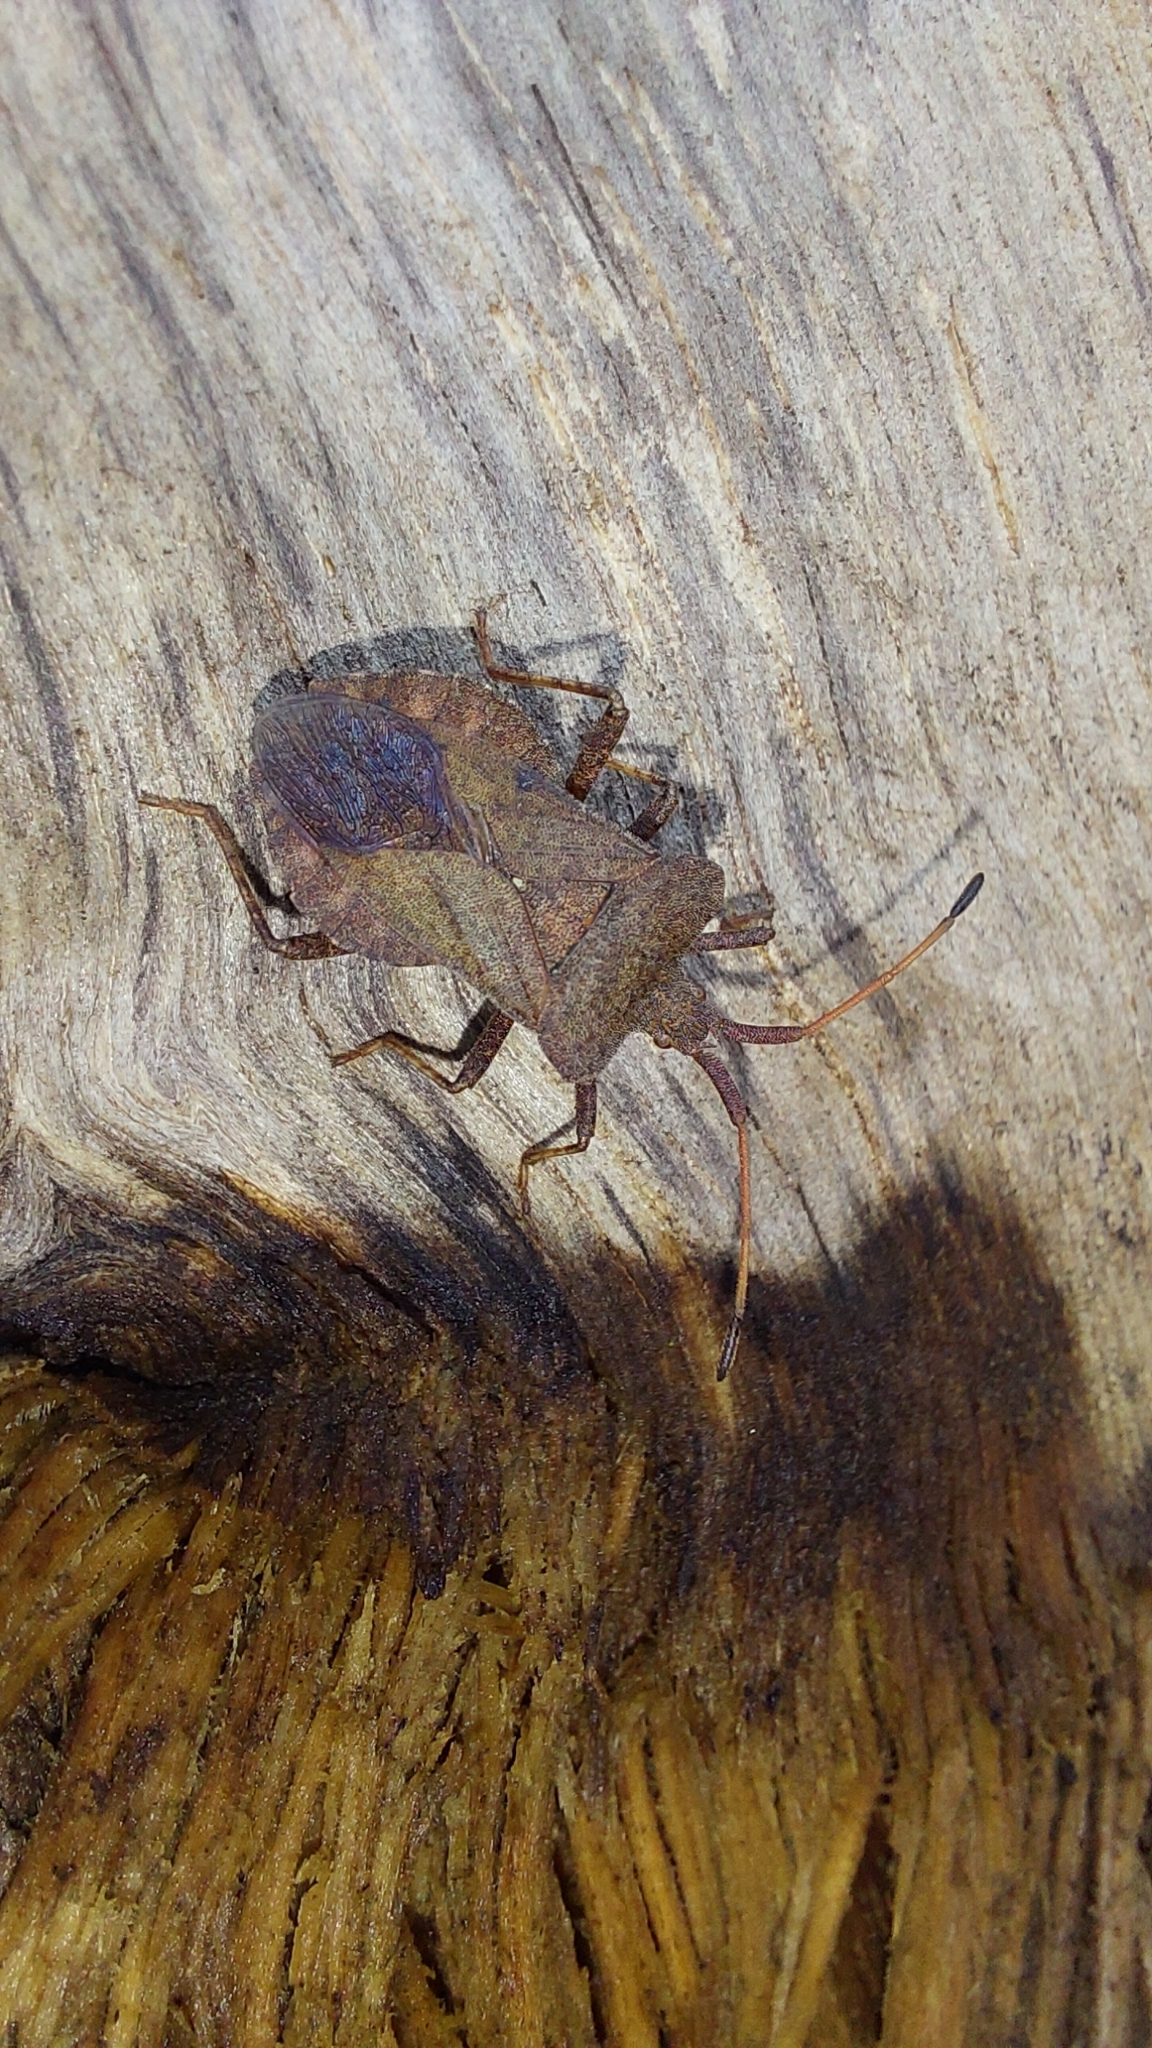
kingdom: Animalia
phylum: Arthropoda
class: Insecta
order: Hemiptera
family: Coreidae
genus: Coreus
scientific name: Coreus marginatus
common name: Dock bug
